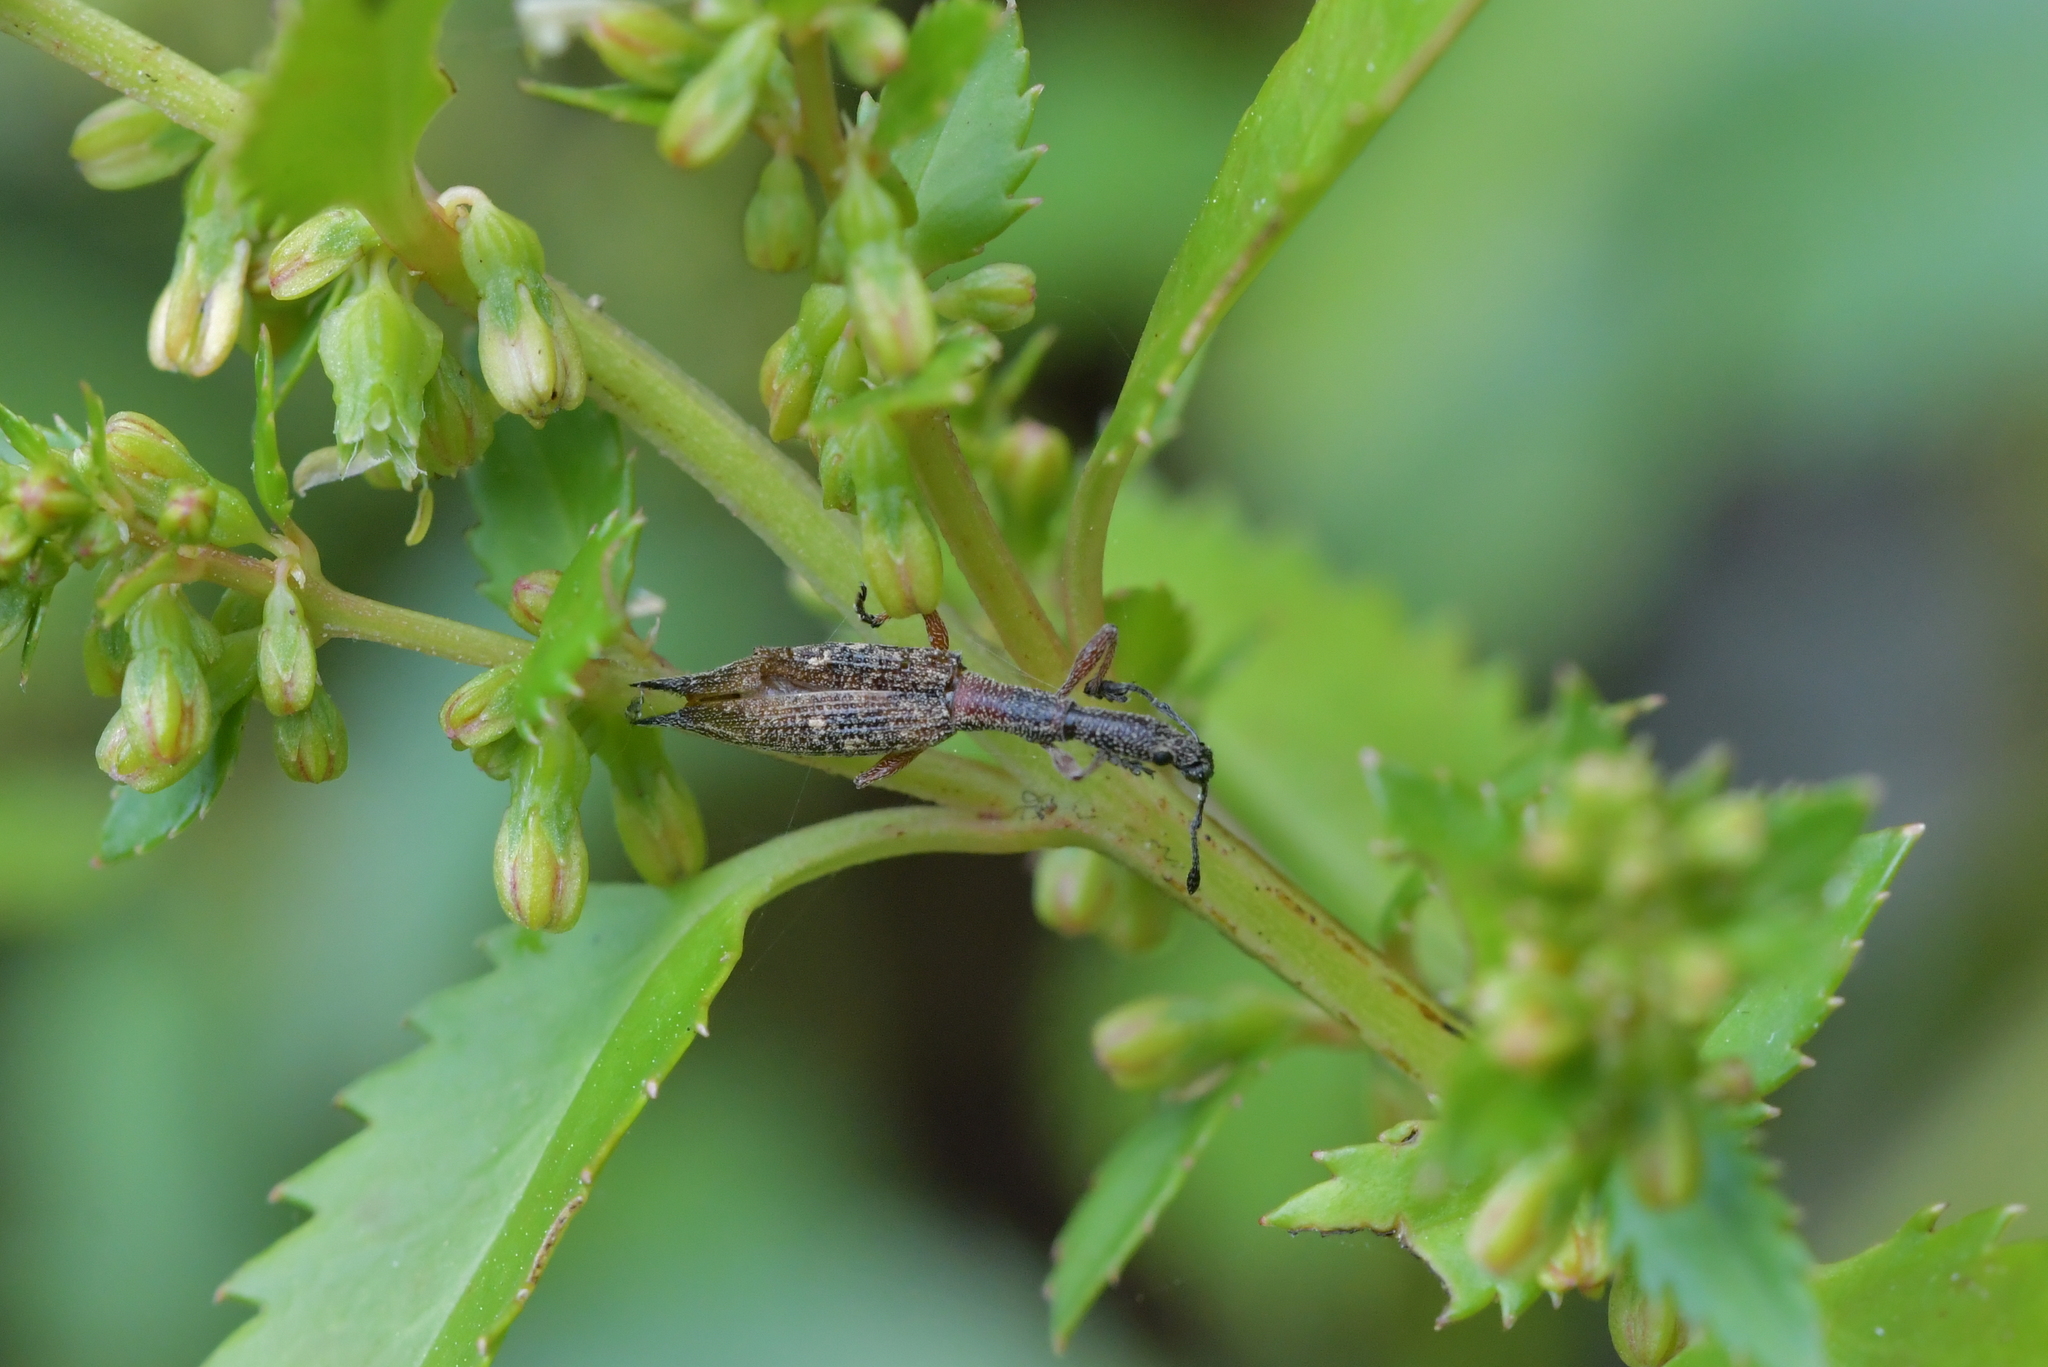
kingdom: Animalia
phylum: Arthropoda
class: Insecta
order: Coleoptera
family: Curculionidae
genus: Rhadinosomus
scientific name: Rhadinosomus acuminatus
